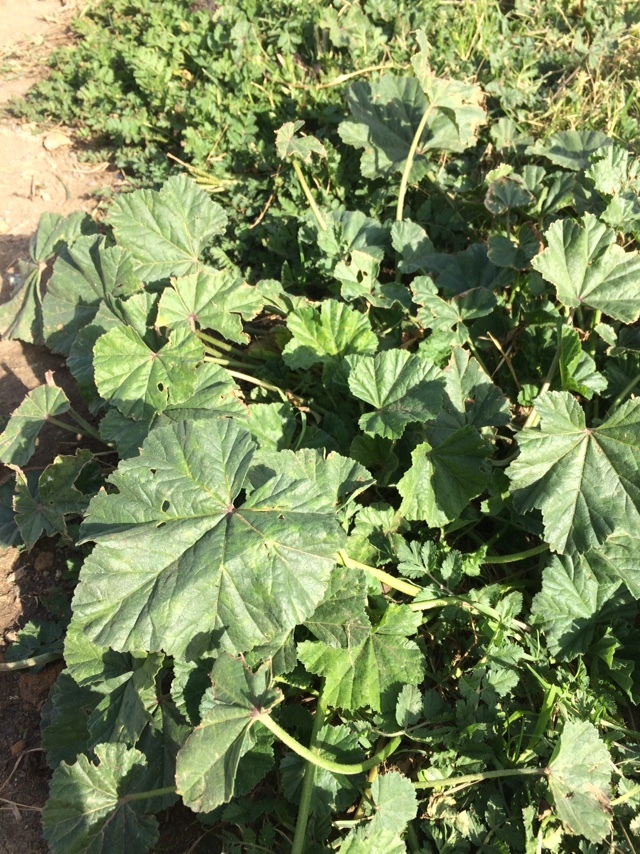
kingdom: Plantae
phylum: Tracheophyta
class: Magnoliopsida
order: Malvales
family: Malvaceae
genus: Malva
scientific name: Malva
